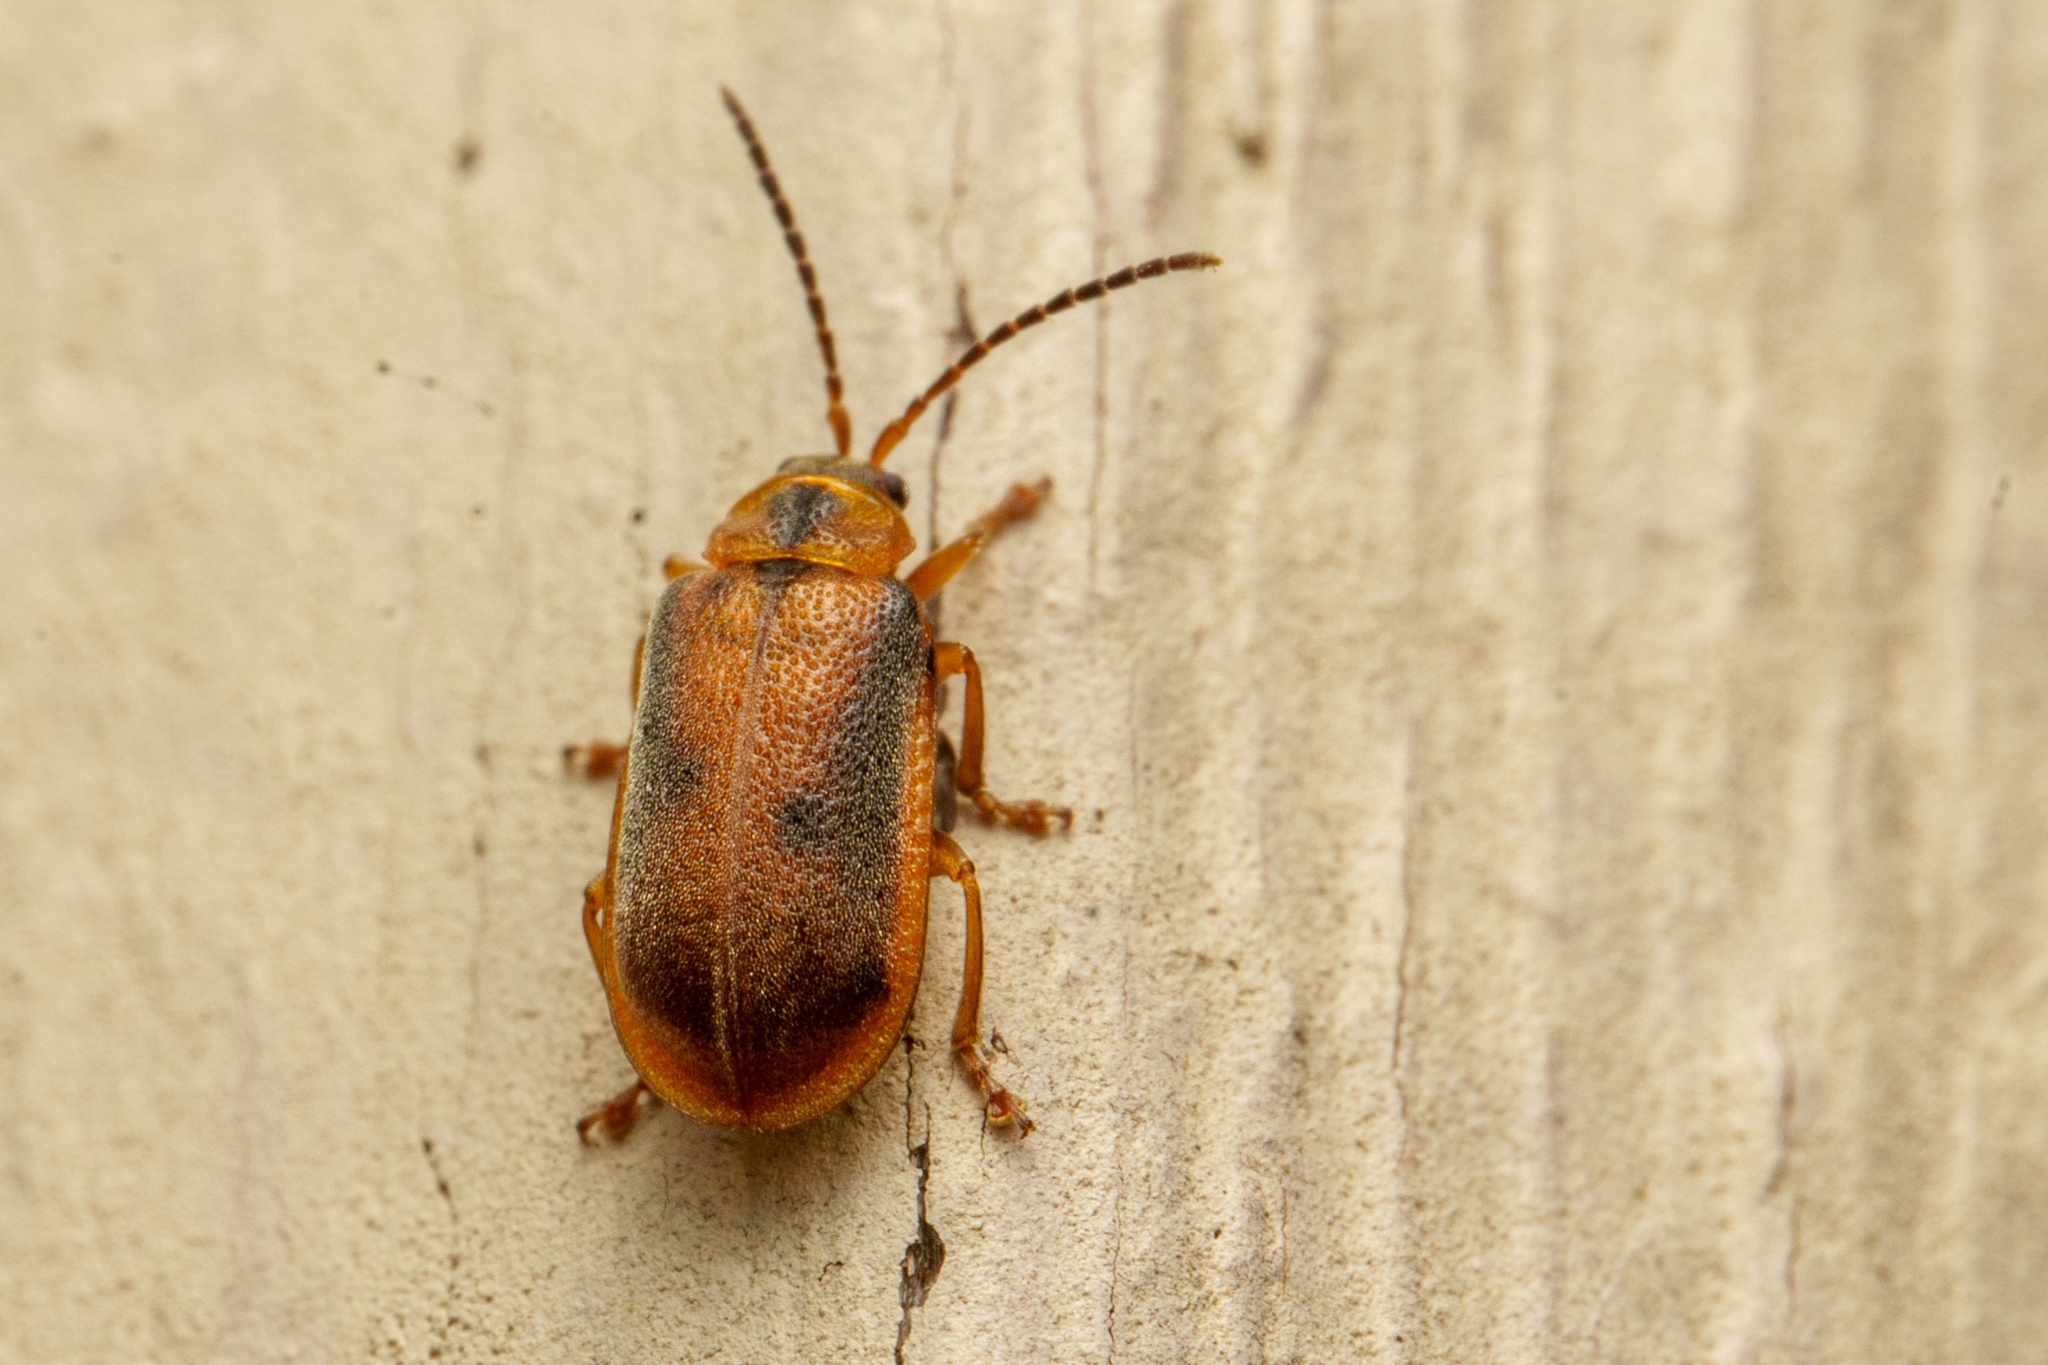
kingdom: Animalia
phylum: Arthropoda
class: Insecta
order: Coleoptera
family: Chrysomelidae
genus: Neogalerucella
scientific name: Neogalerucella calmariensis
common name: Black-margined loosestrife beetle
